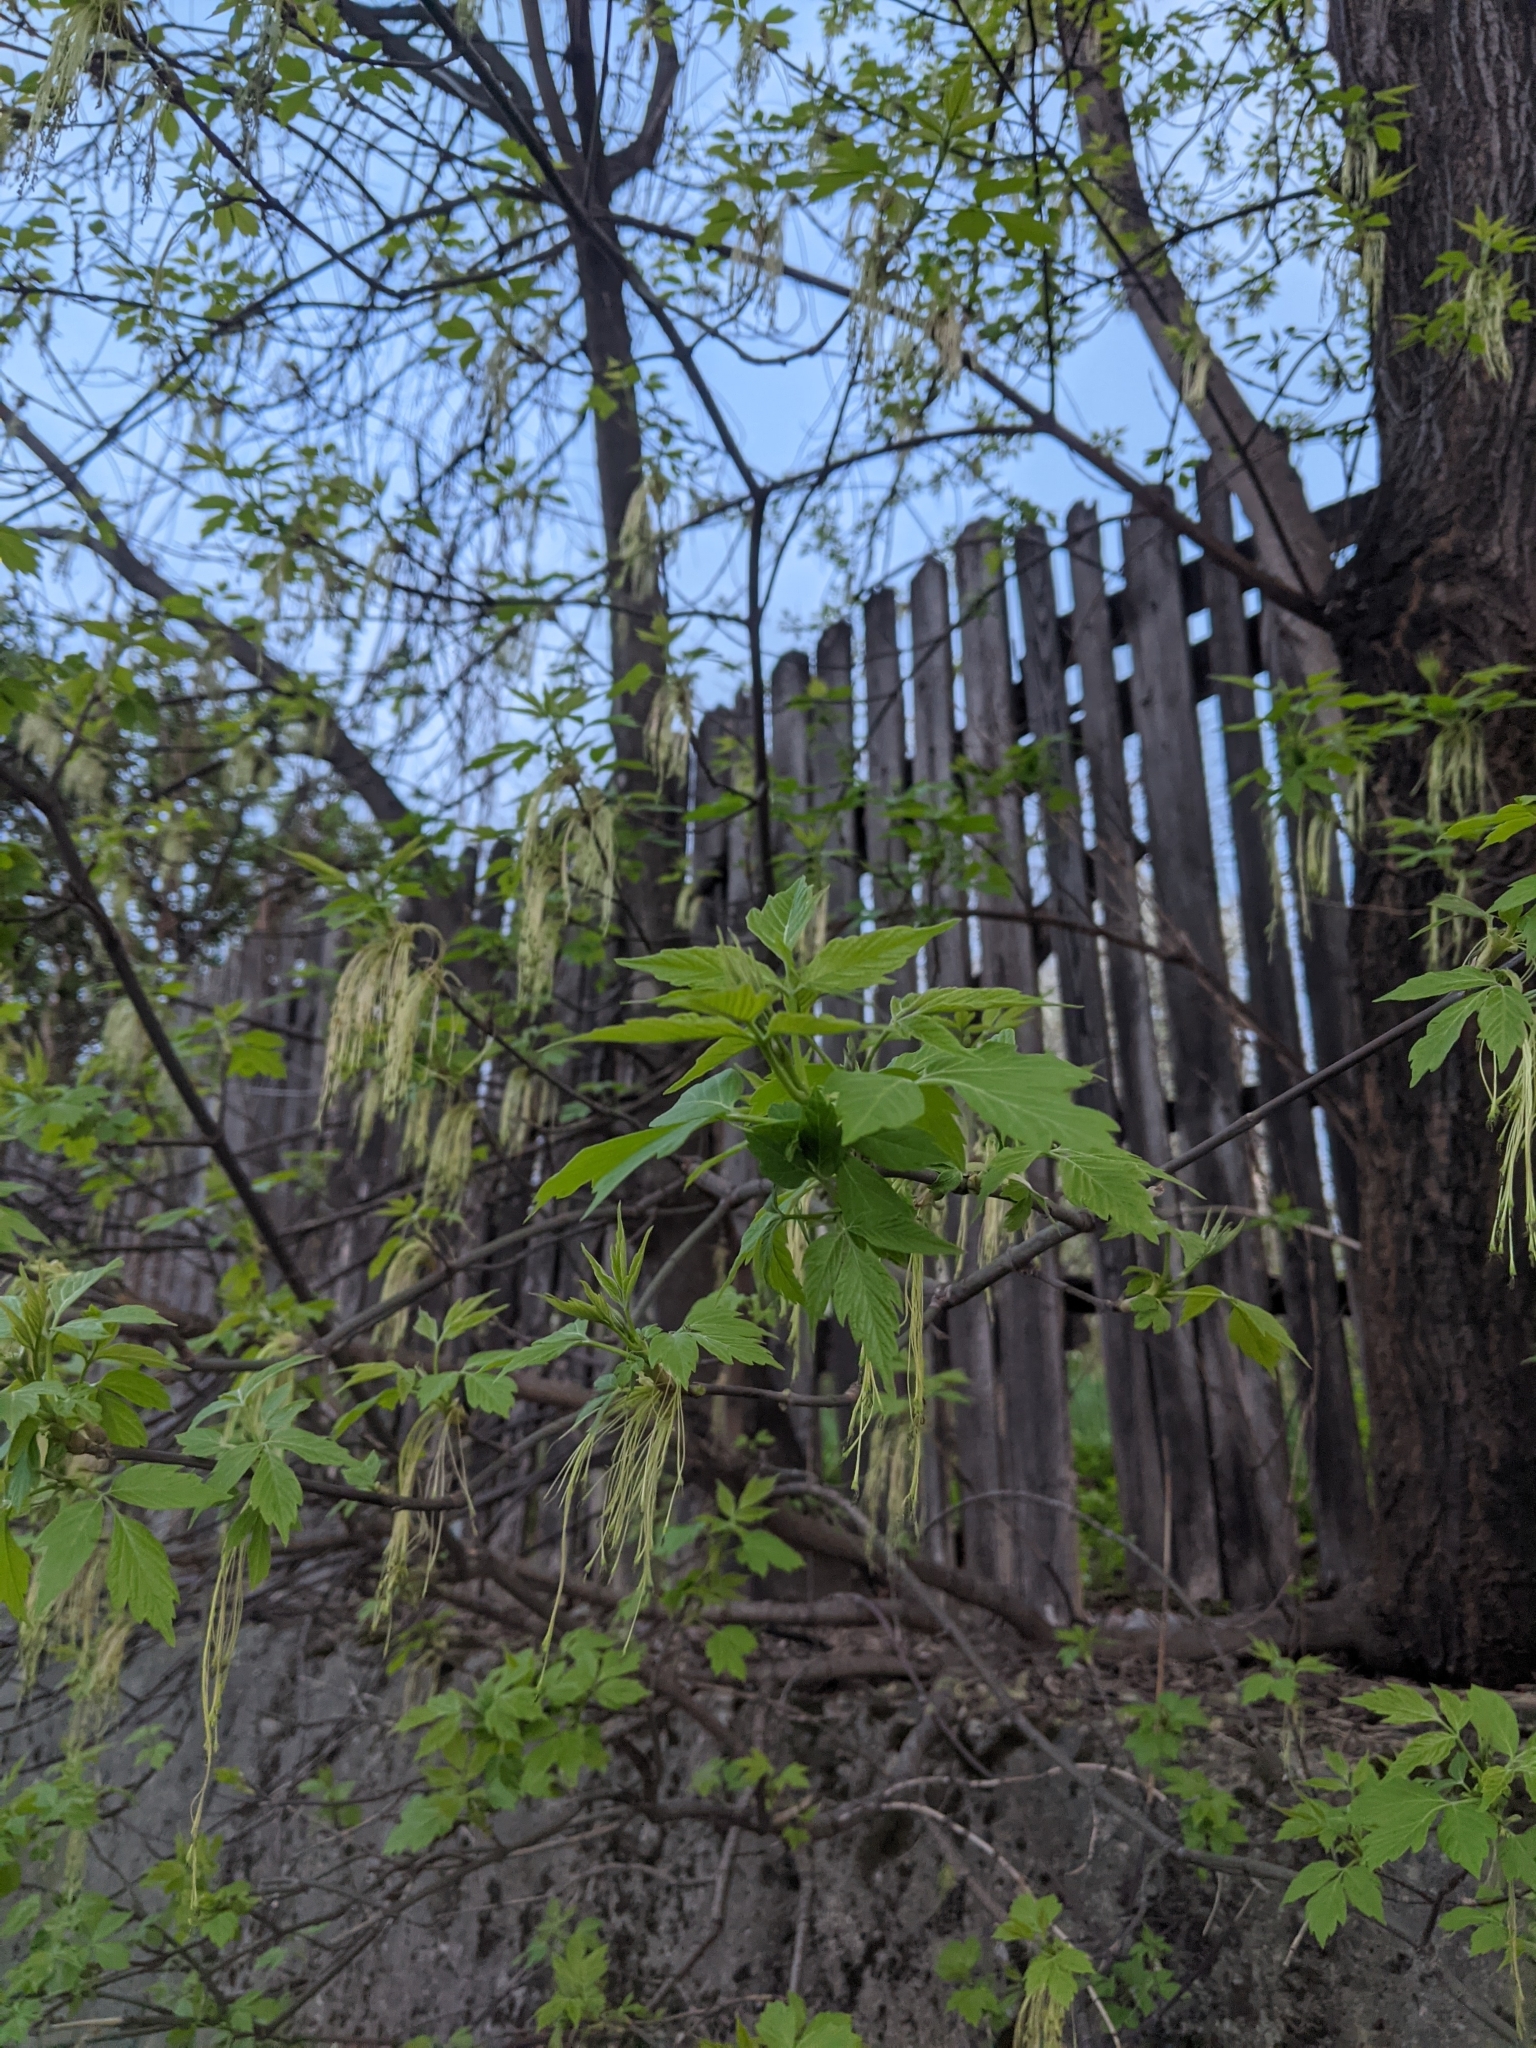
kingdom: Plantae
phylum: Tracheophyta
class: Magnoliopsida
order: Sapindales
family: Sapindaceae
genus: Acer
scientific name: Acer negundo
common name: Ashleaf maple
